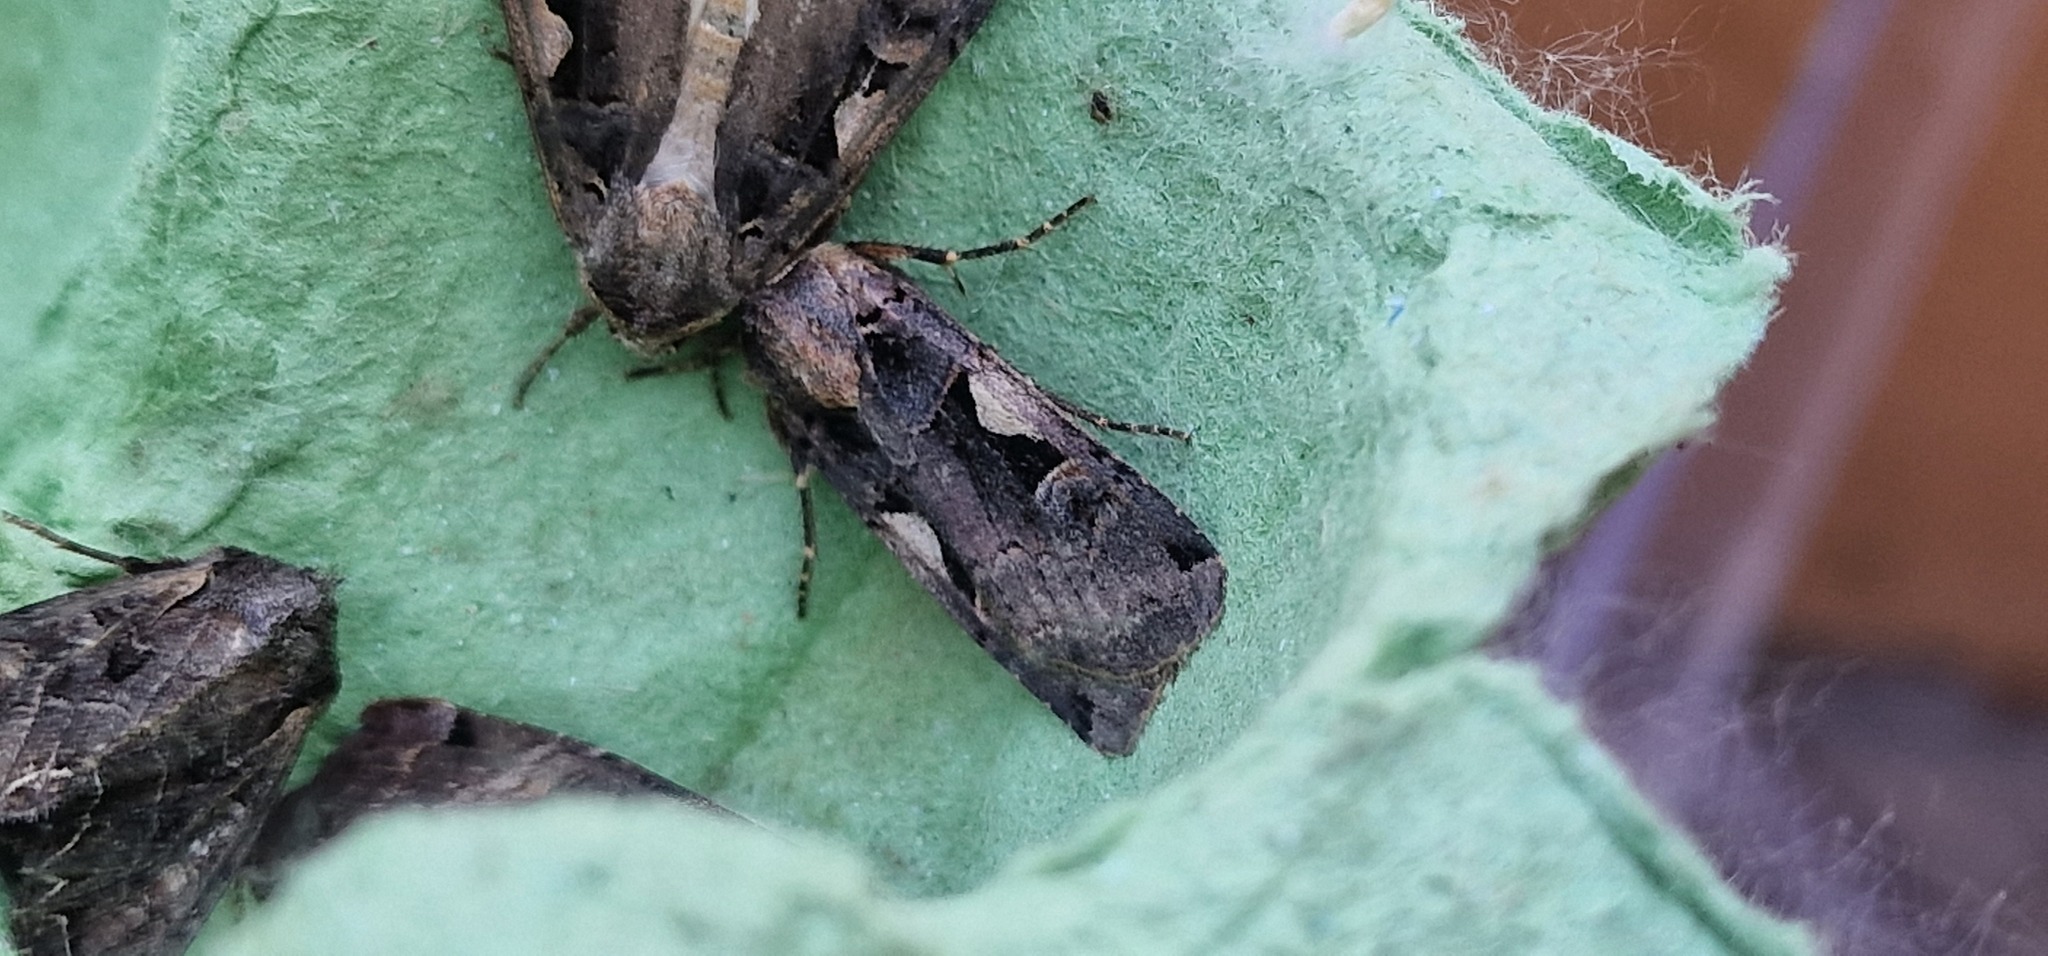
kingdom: Animalia
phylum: Arthropoda
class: Insecta
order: Lepidoptera
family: Noctuidae
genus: Xestia
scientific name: Xestia c-nigrum
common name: Setaceous hebrew character
